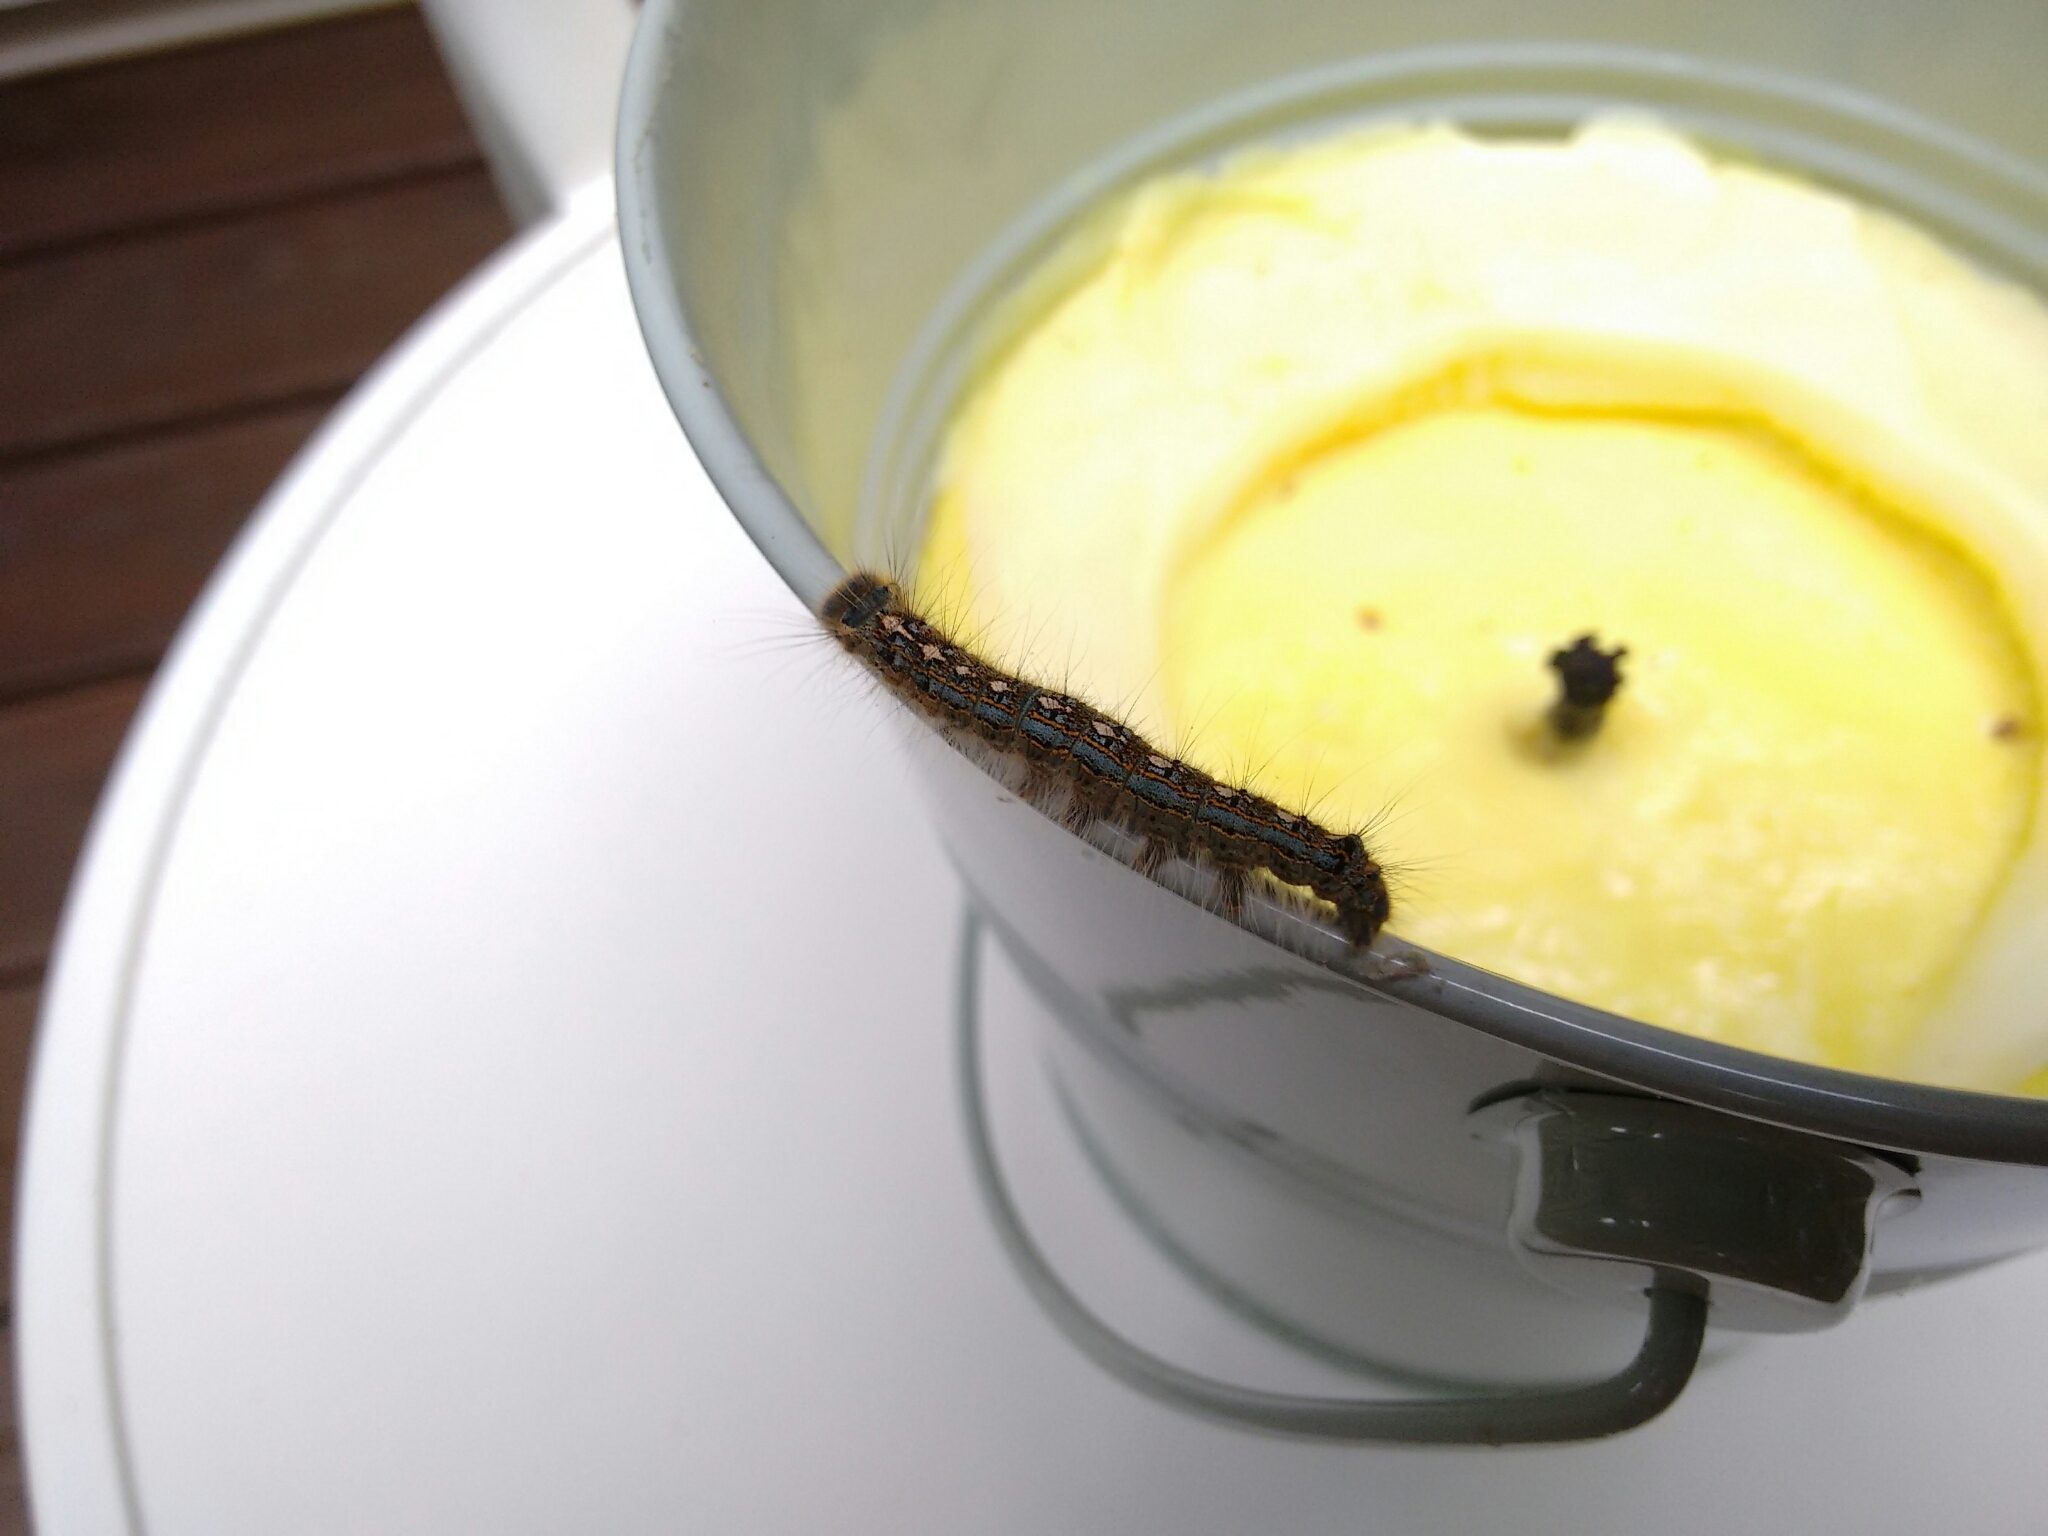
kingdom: Animalia
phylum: Arthropoda
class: Insecta
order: Lepidoptera
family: Lasiocampidae
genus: Malacosoma
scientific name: Malacosoma disstria
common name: Forest tent caterpillar
